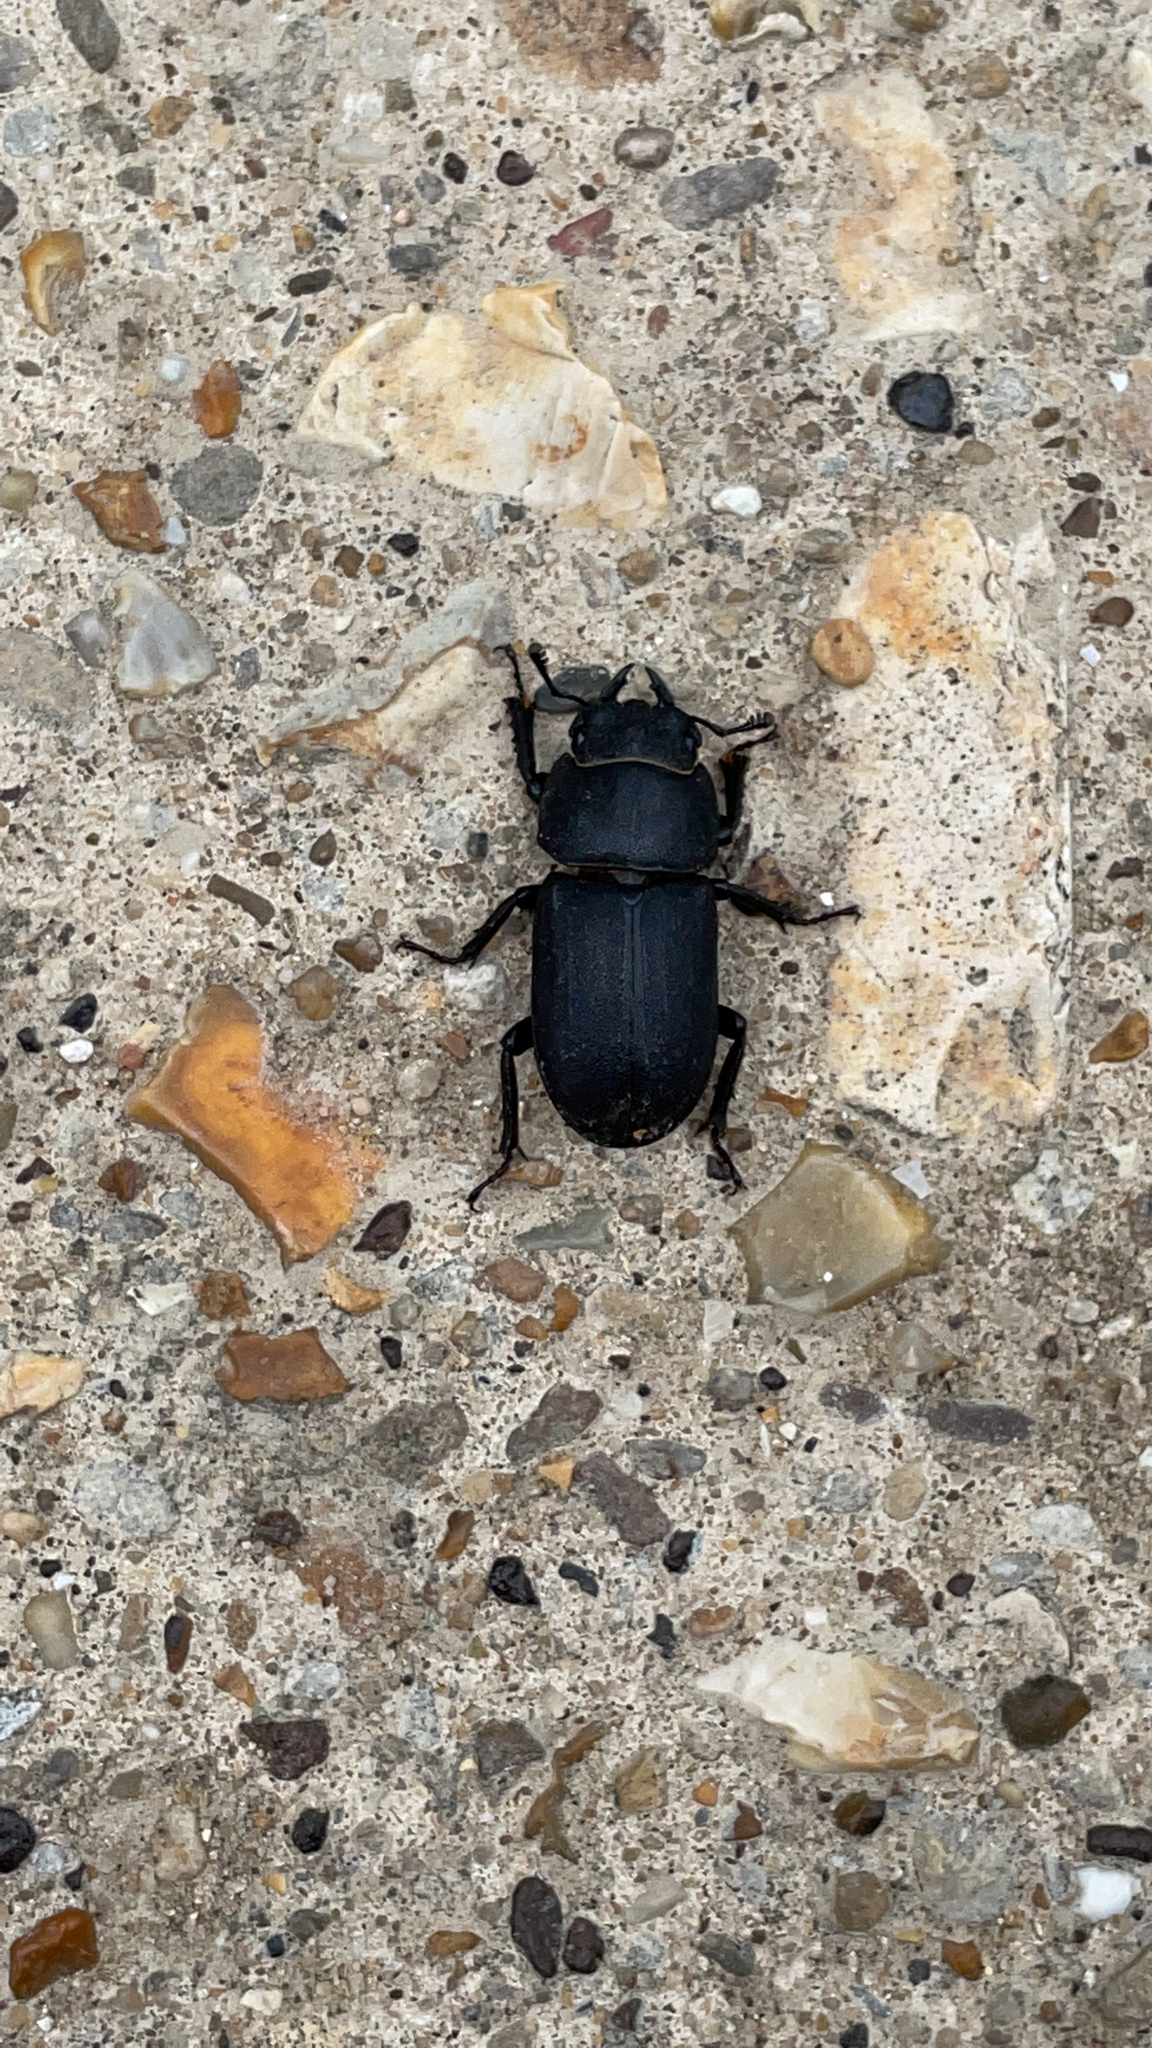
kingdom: Animalia
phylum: Arthropoda
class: Insecta
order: Coleoptera
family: Lucanidae
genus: Dorcus
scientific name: Dorcus parallelipipedus
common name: Lesser stag beetle
